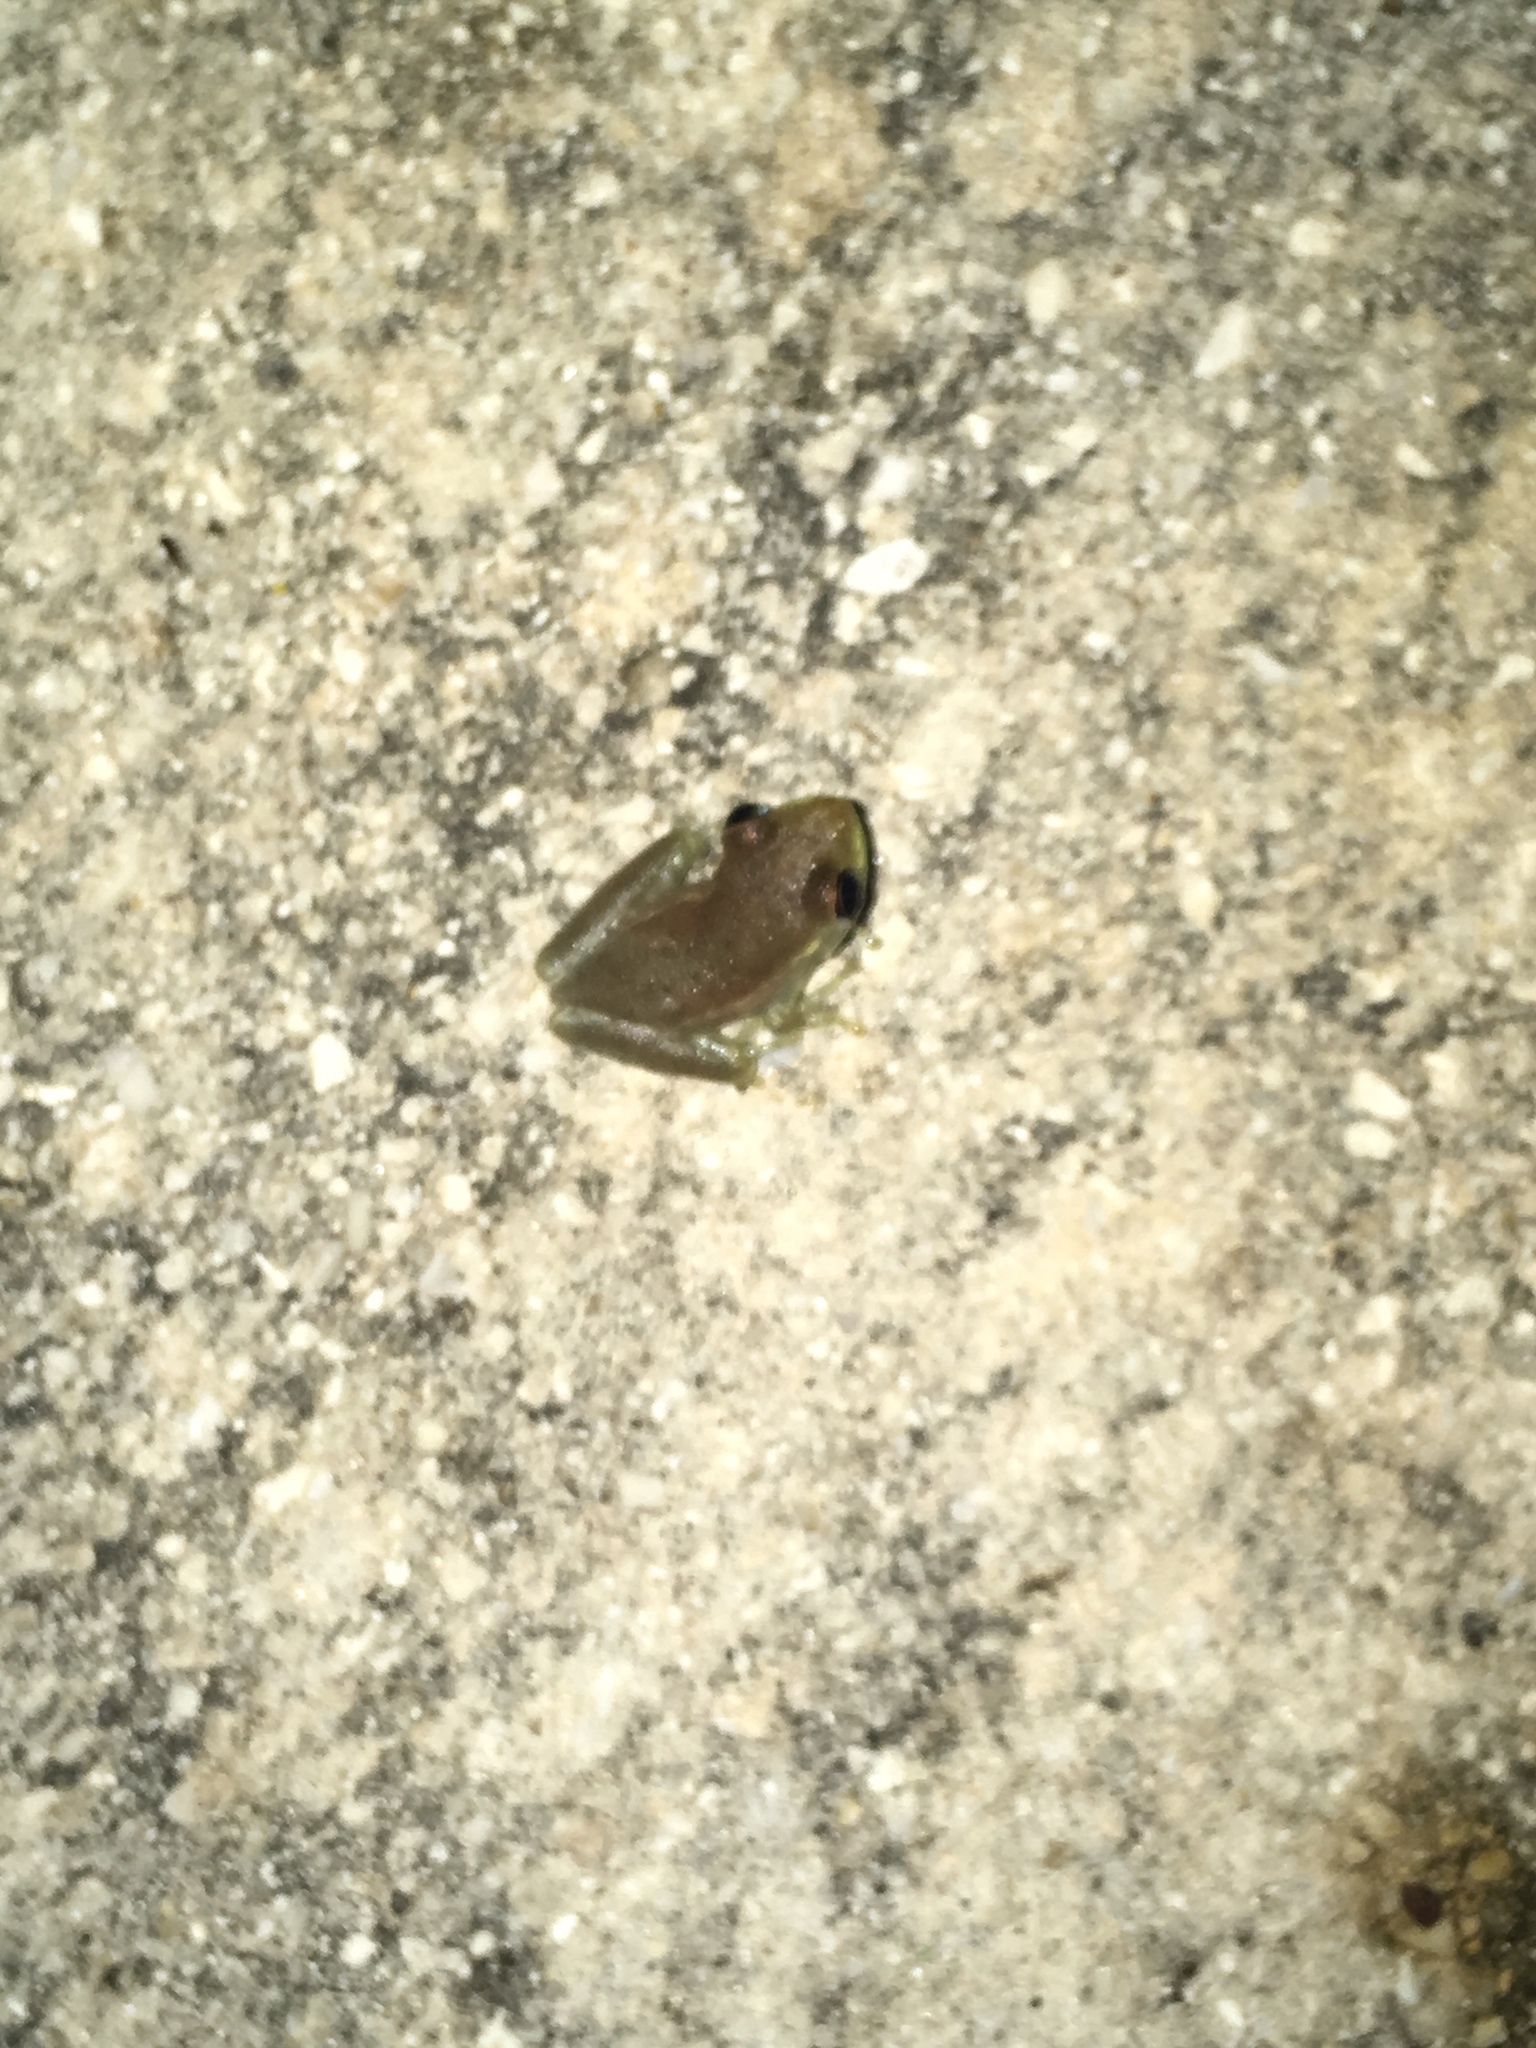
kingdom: Animalia
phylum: Chordata
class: Amphibia
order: Anura
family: Hylidae
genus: Osteopilus
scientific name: Osteopilus septentrionalis
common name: Cuban treefrog
